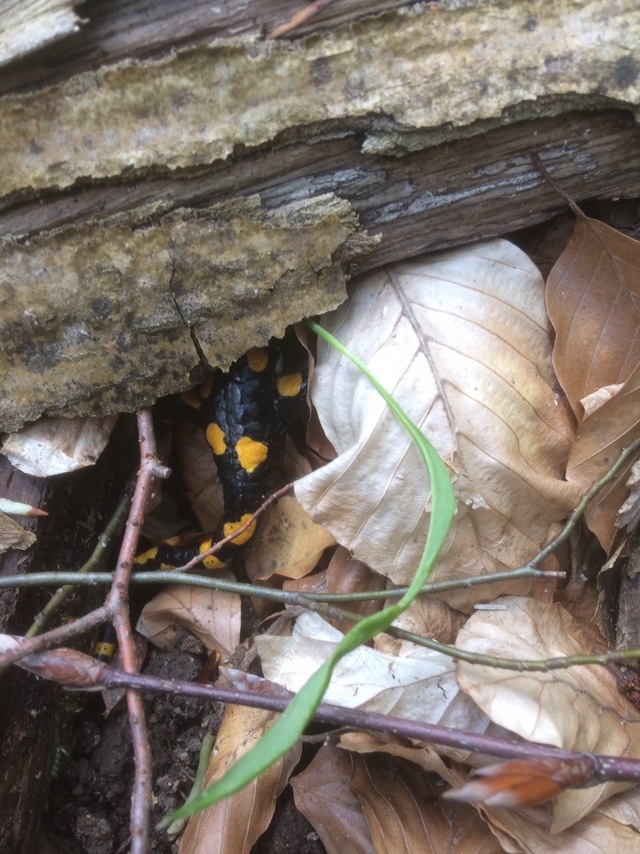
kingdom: Animalia
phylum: Chordata
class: Amphibia
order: Caudata
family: Salamandridae
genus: Salamandra
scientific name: Salamandra salamandra
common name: Fire salamander
